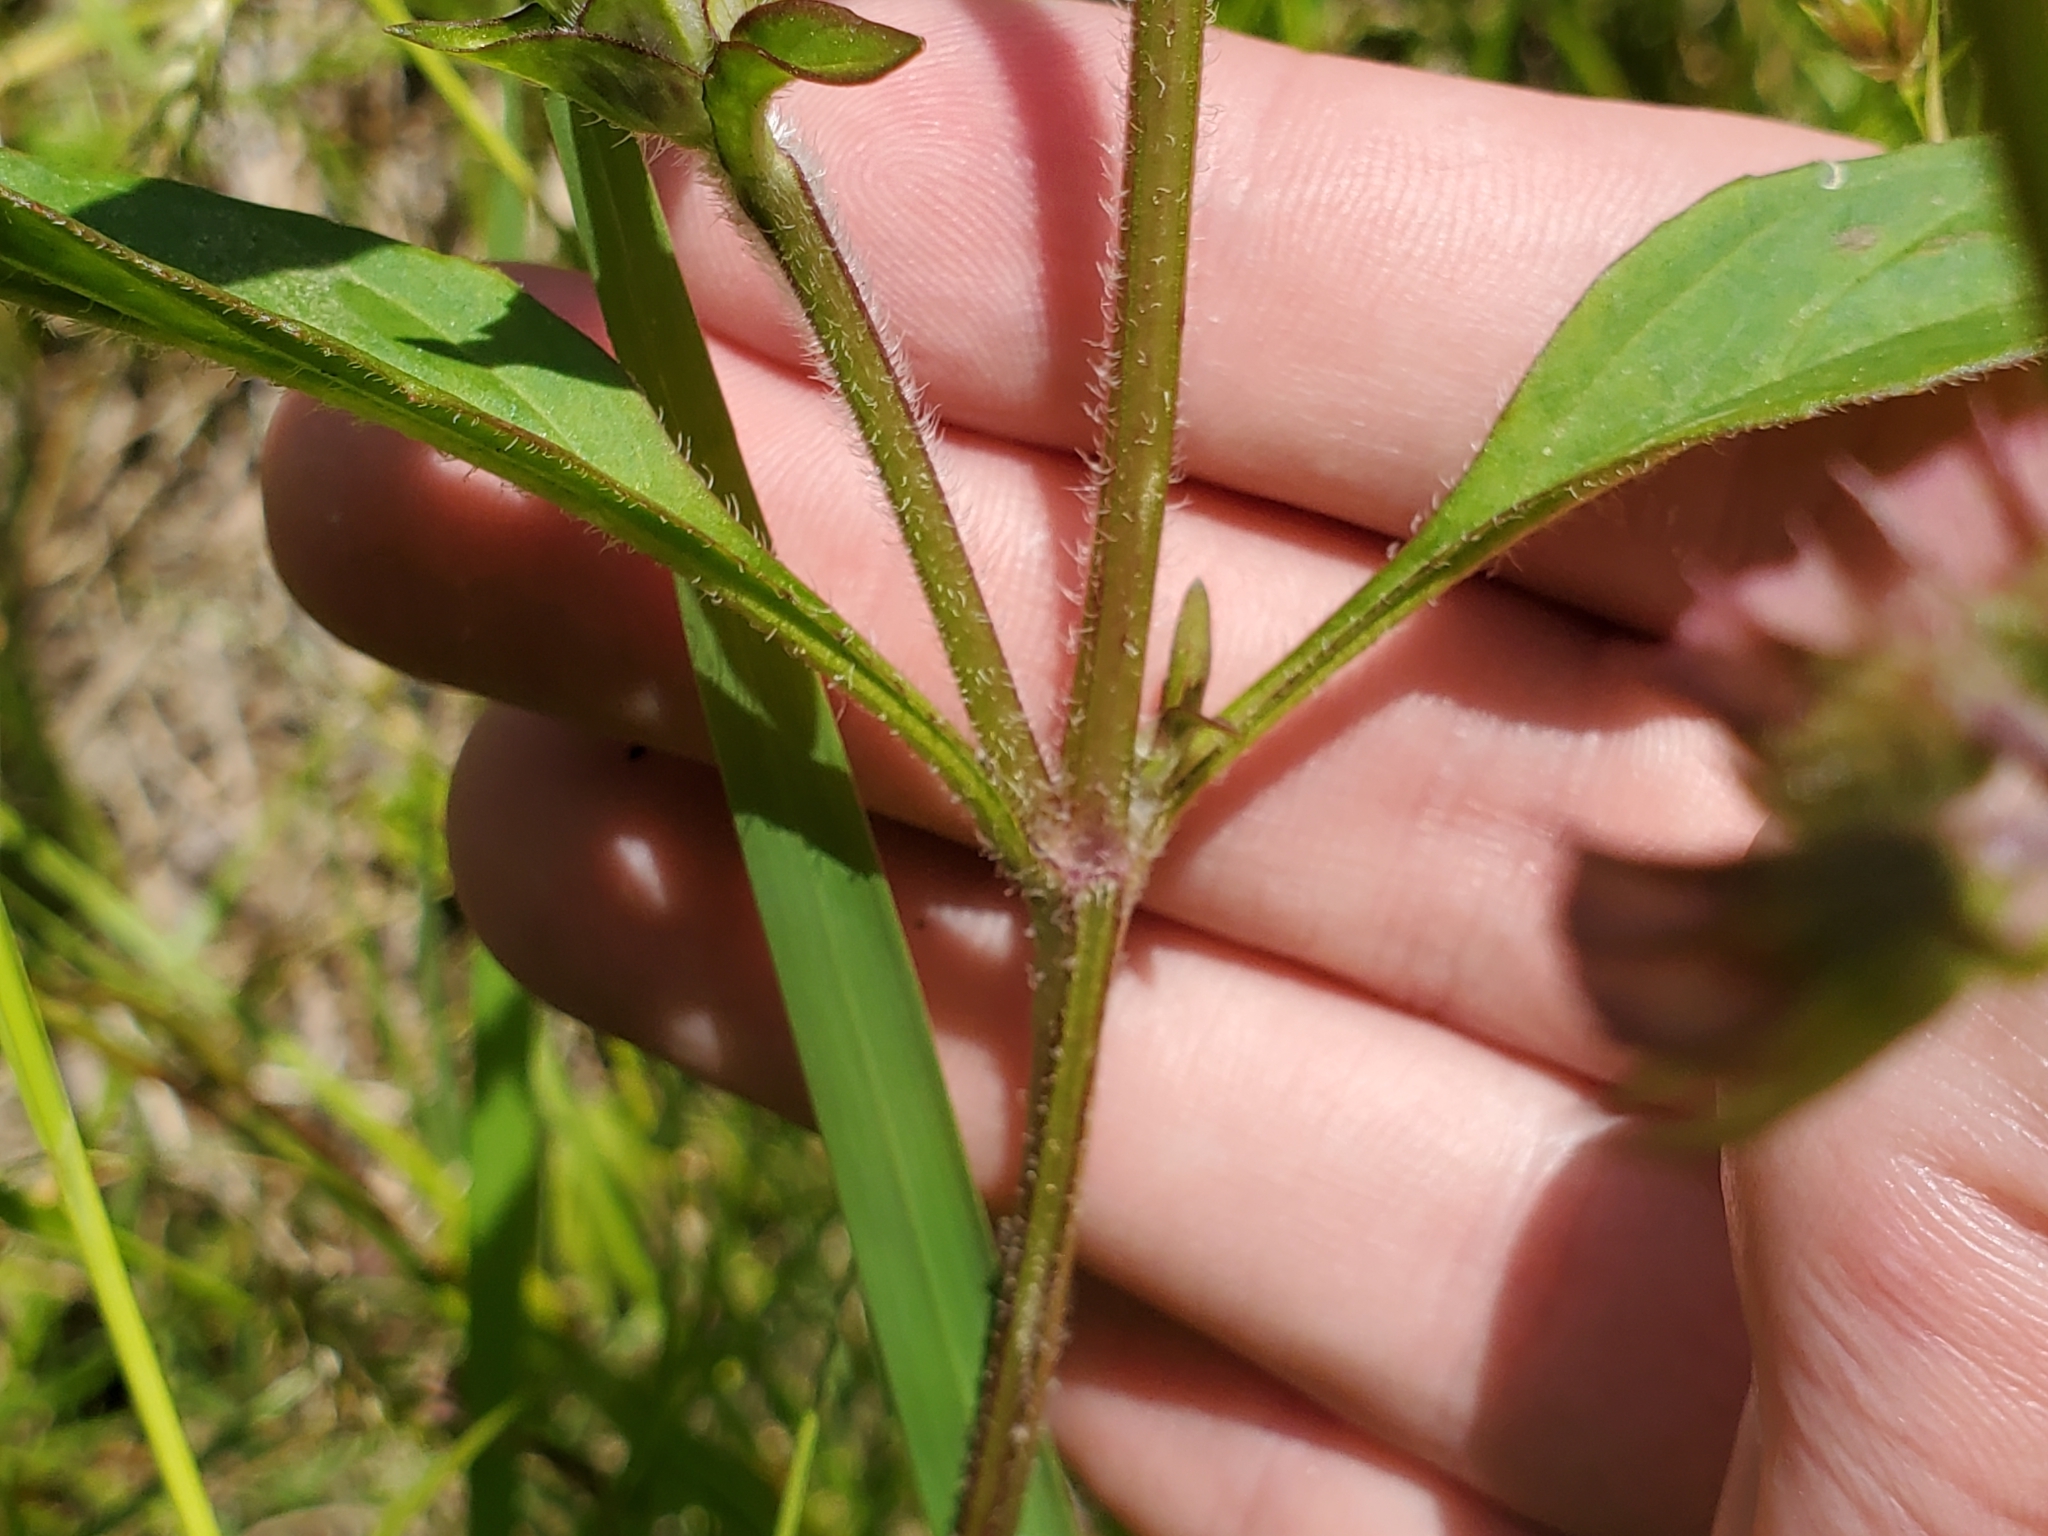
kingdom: Plantae
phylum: Tracheophyta
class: Magnoliopsida
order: Lamiales
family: Lamiaceae
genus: Prunella
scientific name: Prunella vulgaris
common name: Heal-all
